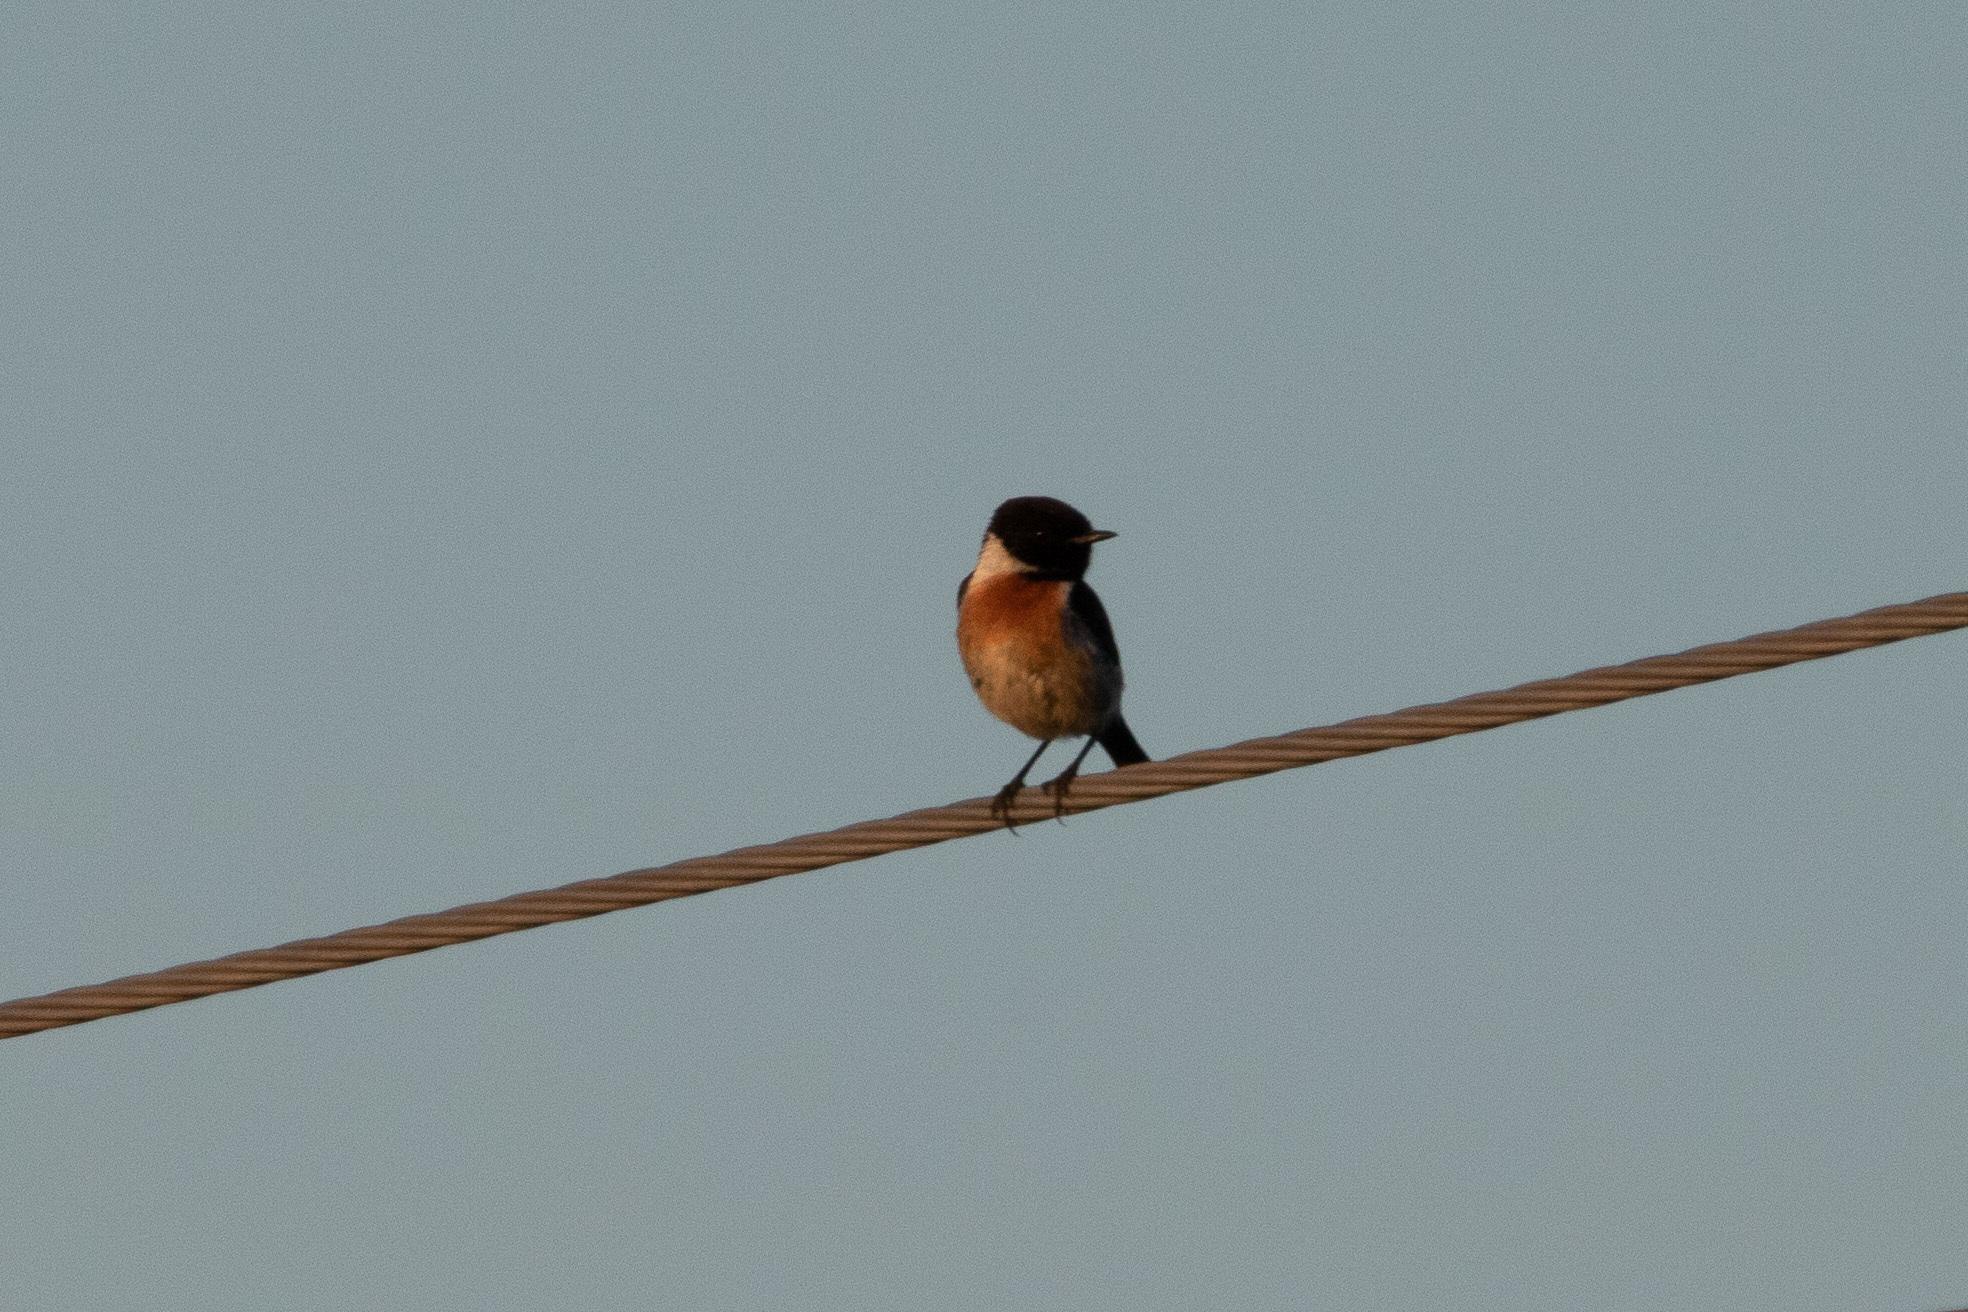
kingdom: Animalia
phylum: Chordata
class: Aves
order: Passeriformes
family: Muscicapidae
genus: Saxicola
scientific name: Saxicola rubicola
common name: European stonechat
